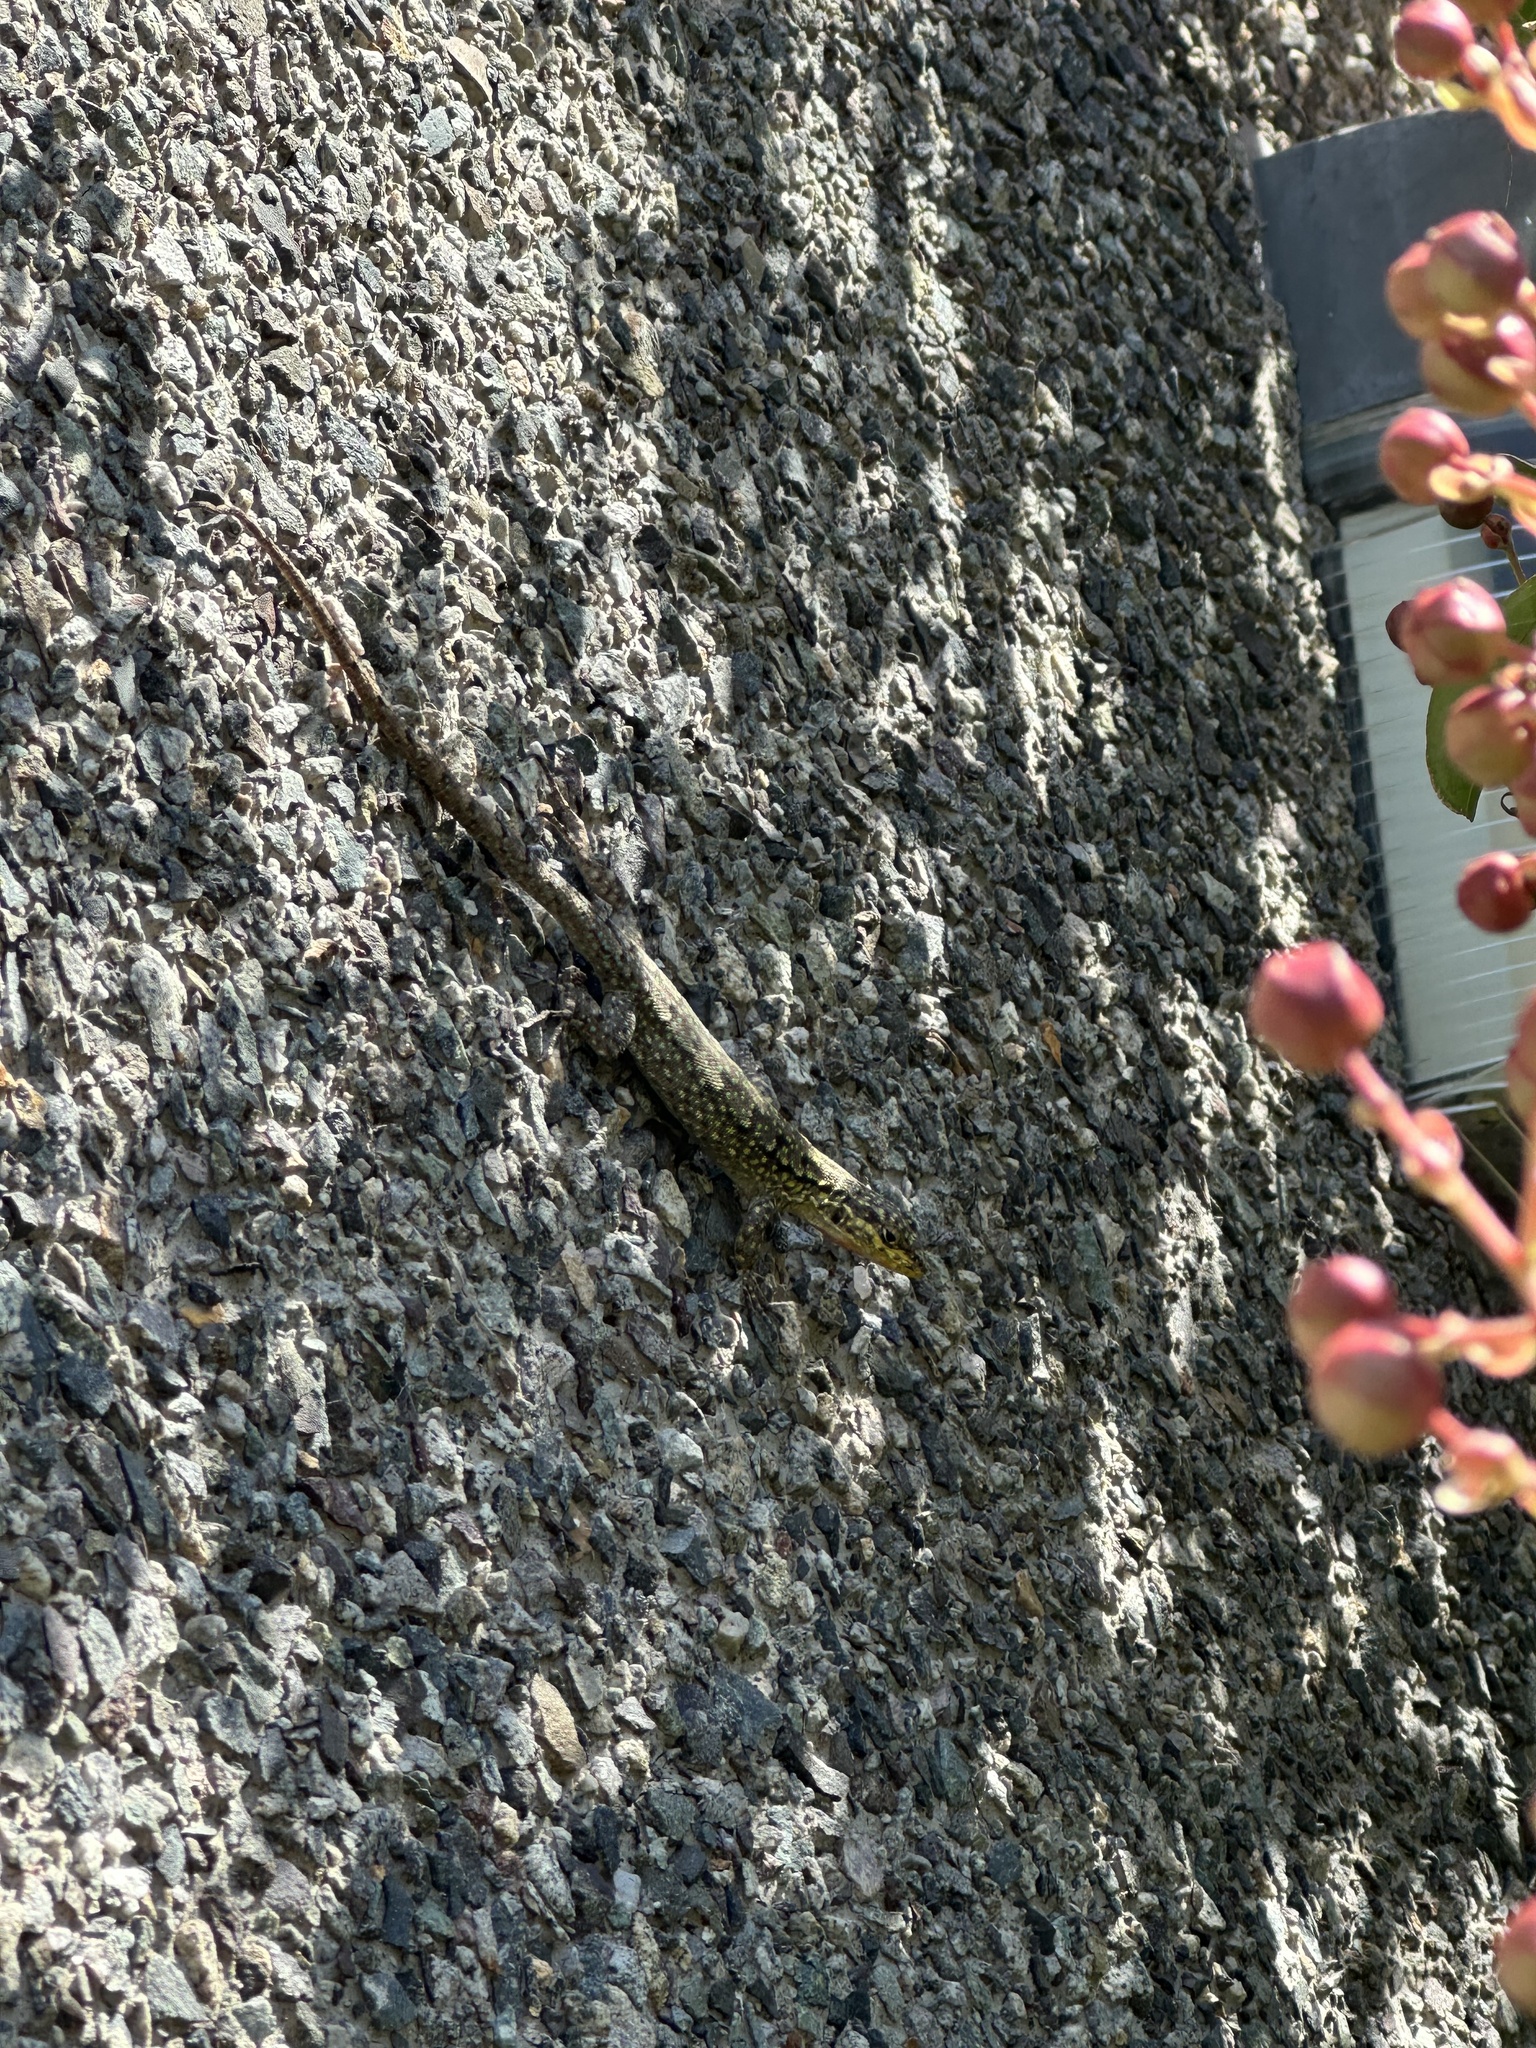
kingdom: Animalia
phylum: Chordata
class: Squamata
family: Liolaemidae
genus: Liolaemus
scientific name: Liolaemus tenuis
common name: Thin tree iguana
